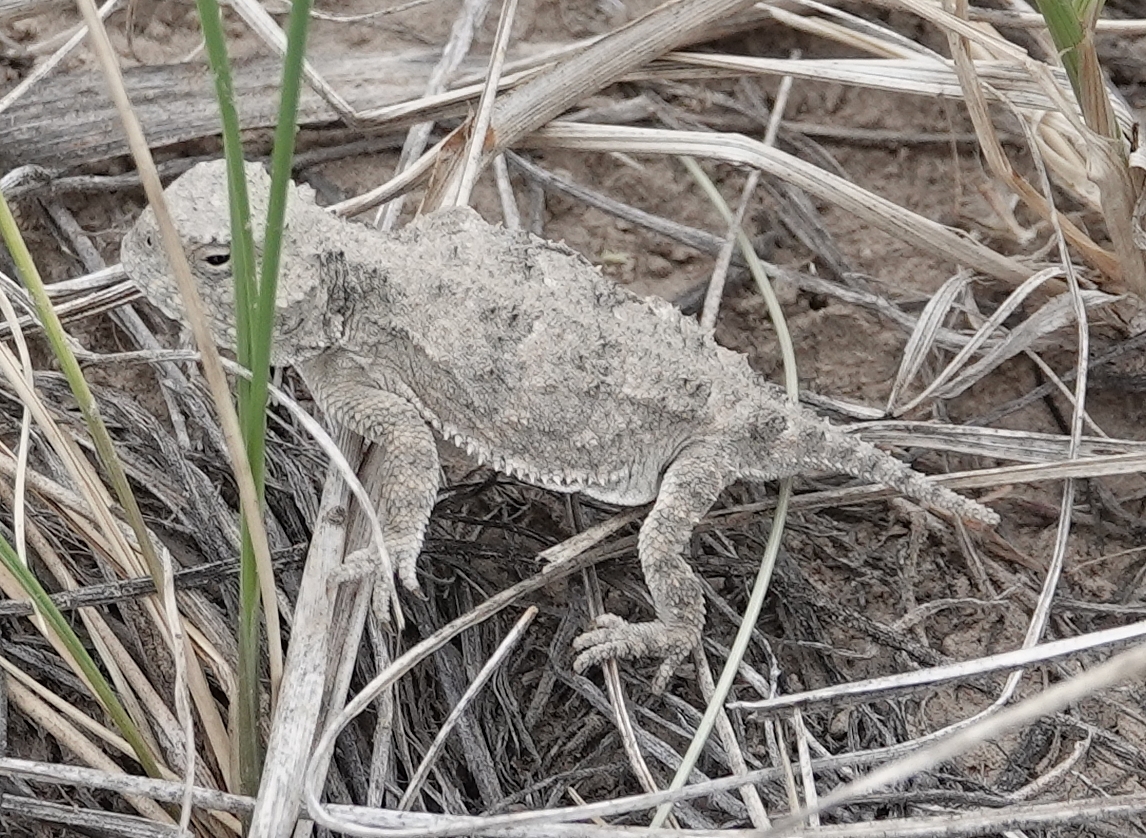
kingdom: Animalia
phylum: Chordata
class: Squamata
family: Phrynosomatidae
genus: Phrynosoma
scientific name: Phrynosoma hernandesi
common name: Greater short-horned lizard
